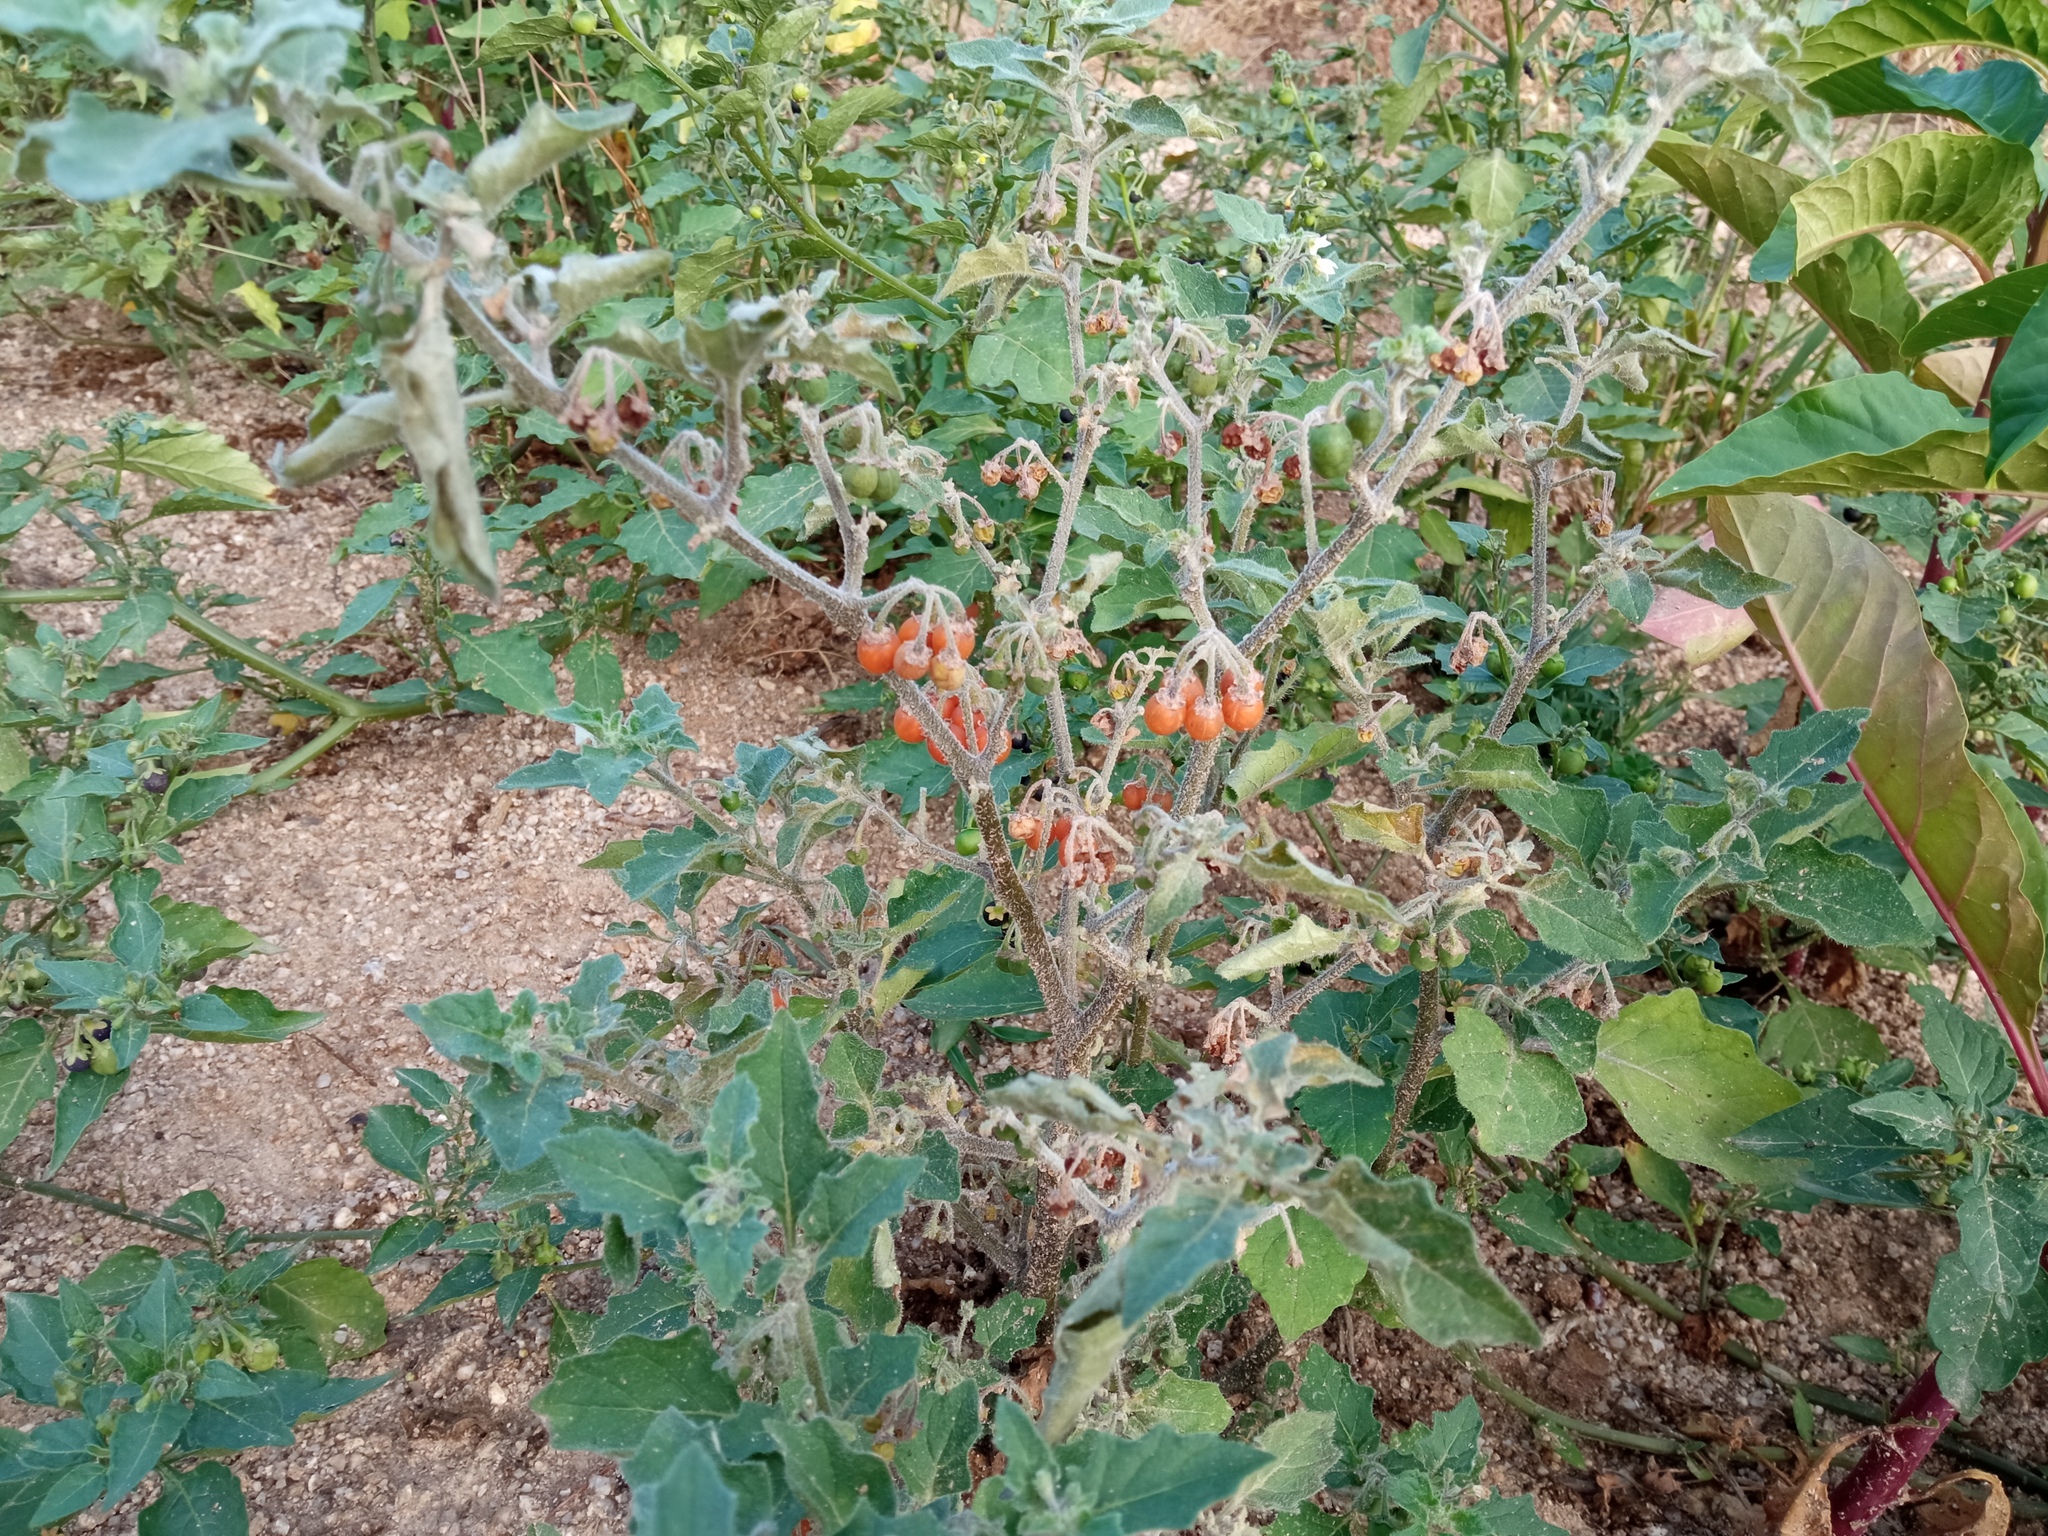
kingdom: Plantae
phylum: Tracheophyta
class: Magnoliopsida
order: Solanales
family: Solanaceae
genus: Solanum
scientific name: Solanum villosum
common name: Red nightshade
